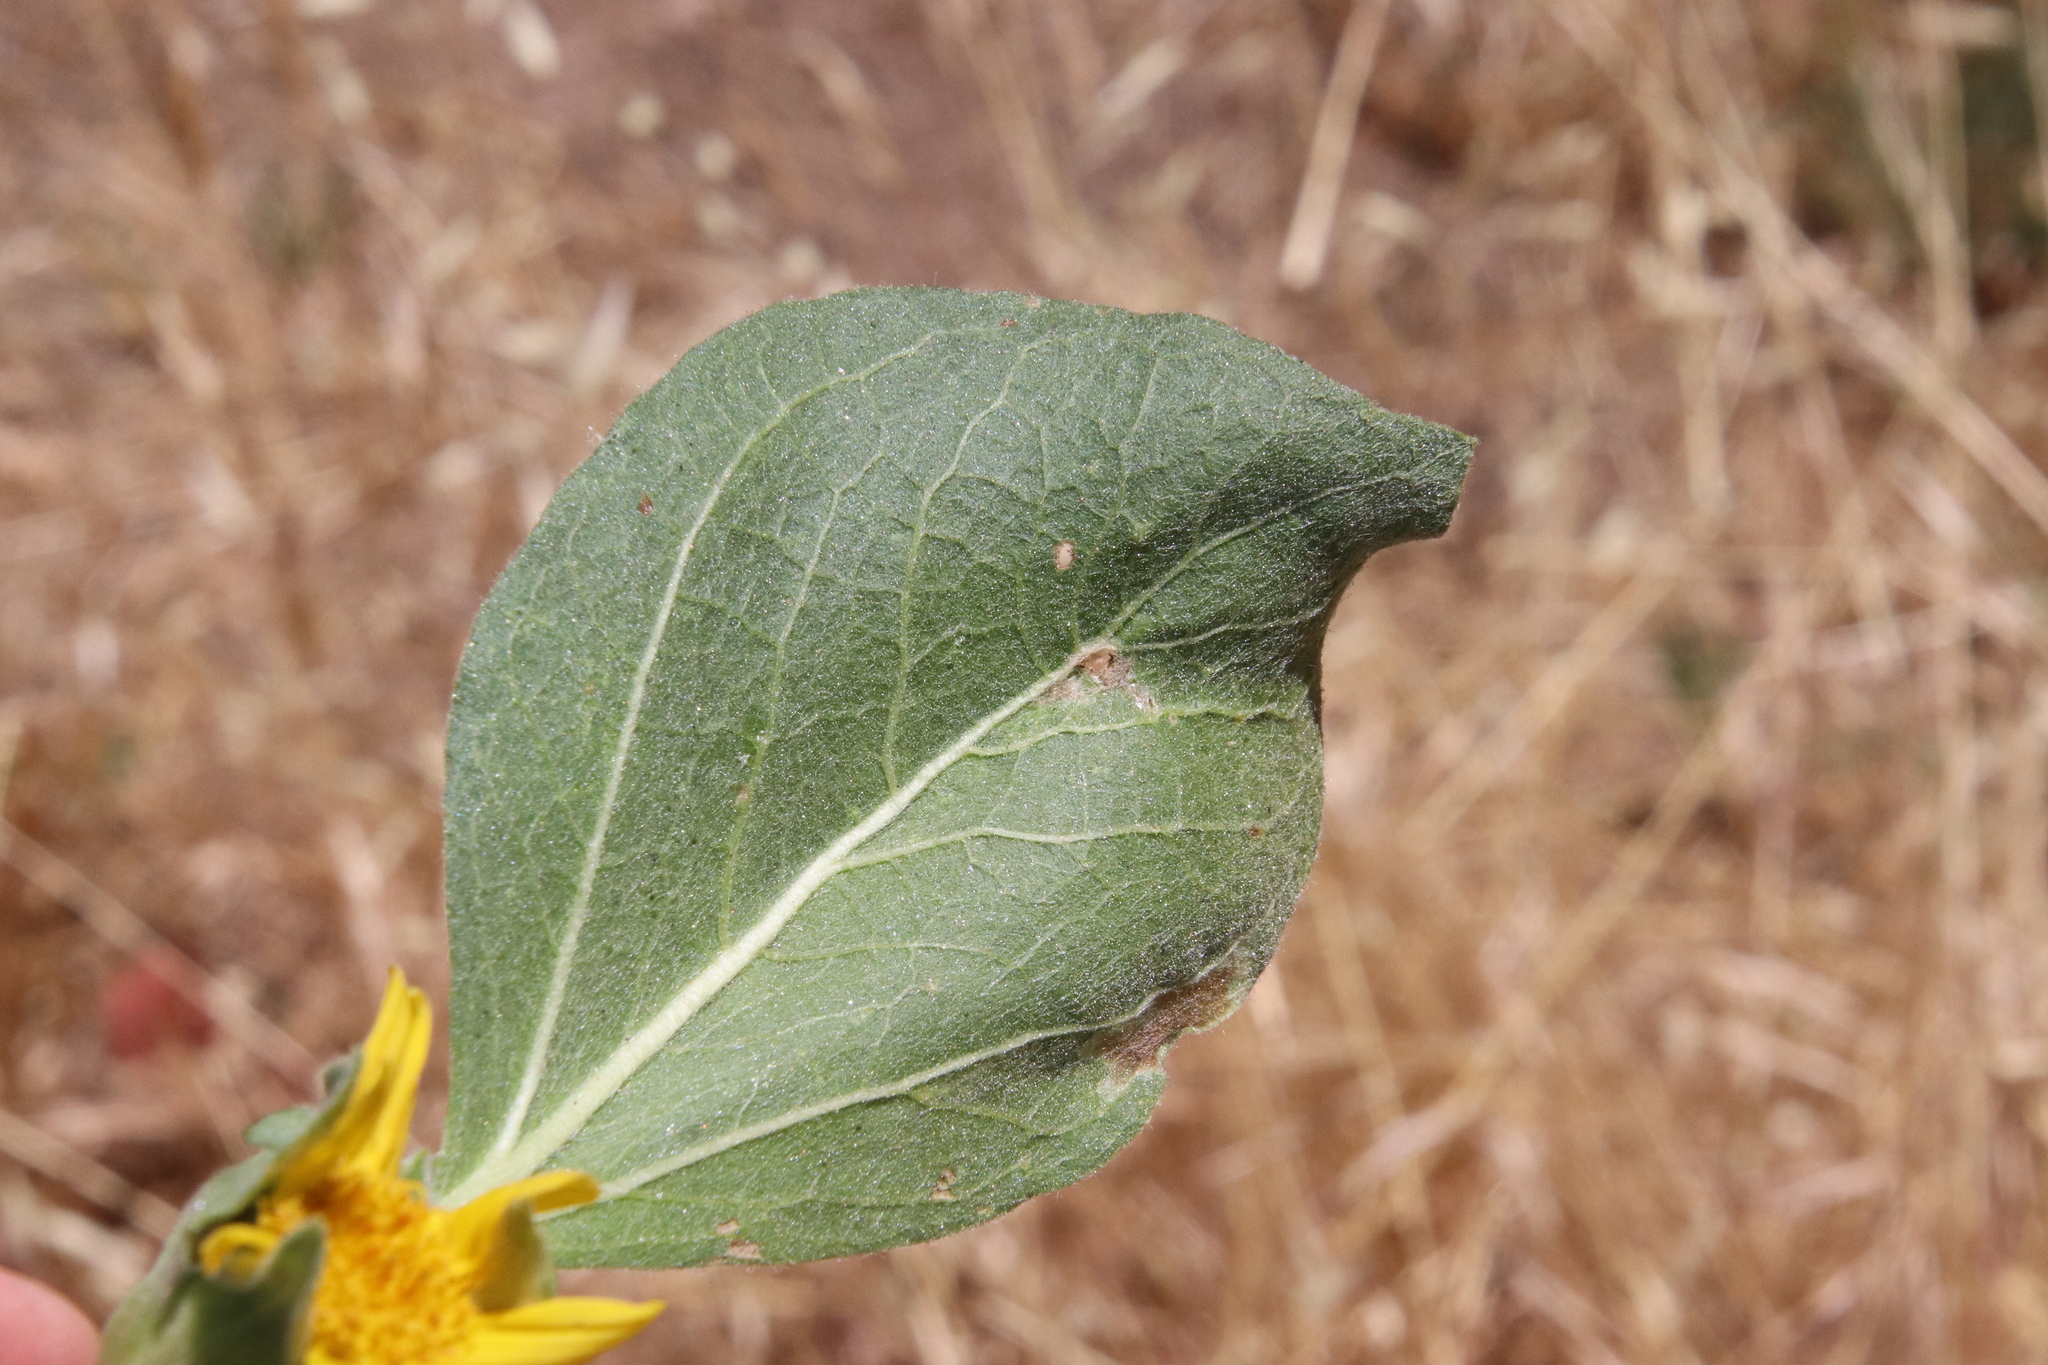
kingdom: Plantae
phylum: Tracheophyta
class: Magnoliopsida
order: Asterales
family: Asteraceae
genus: Agnorhiza
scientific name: Agnorhiza ovata
